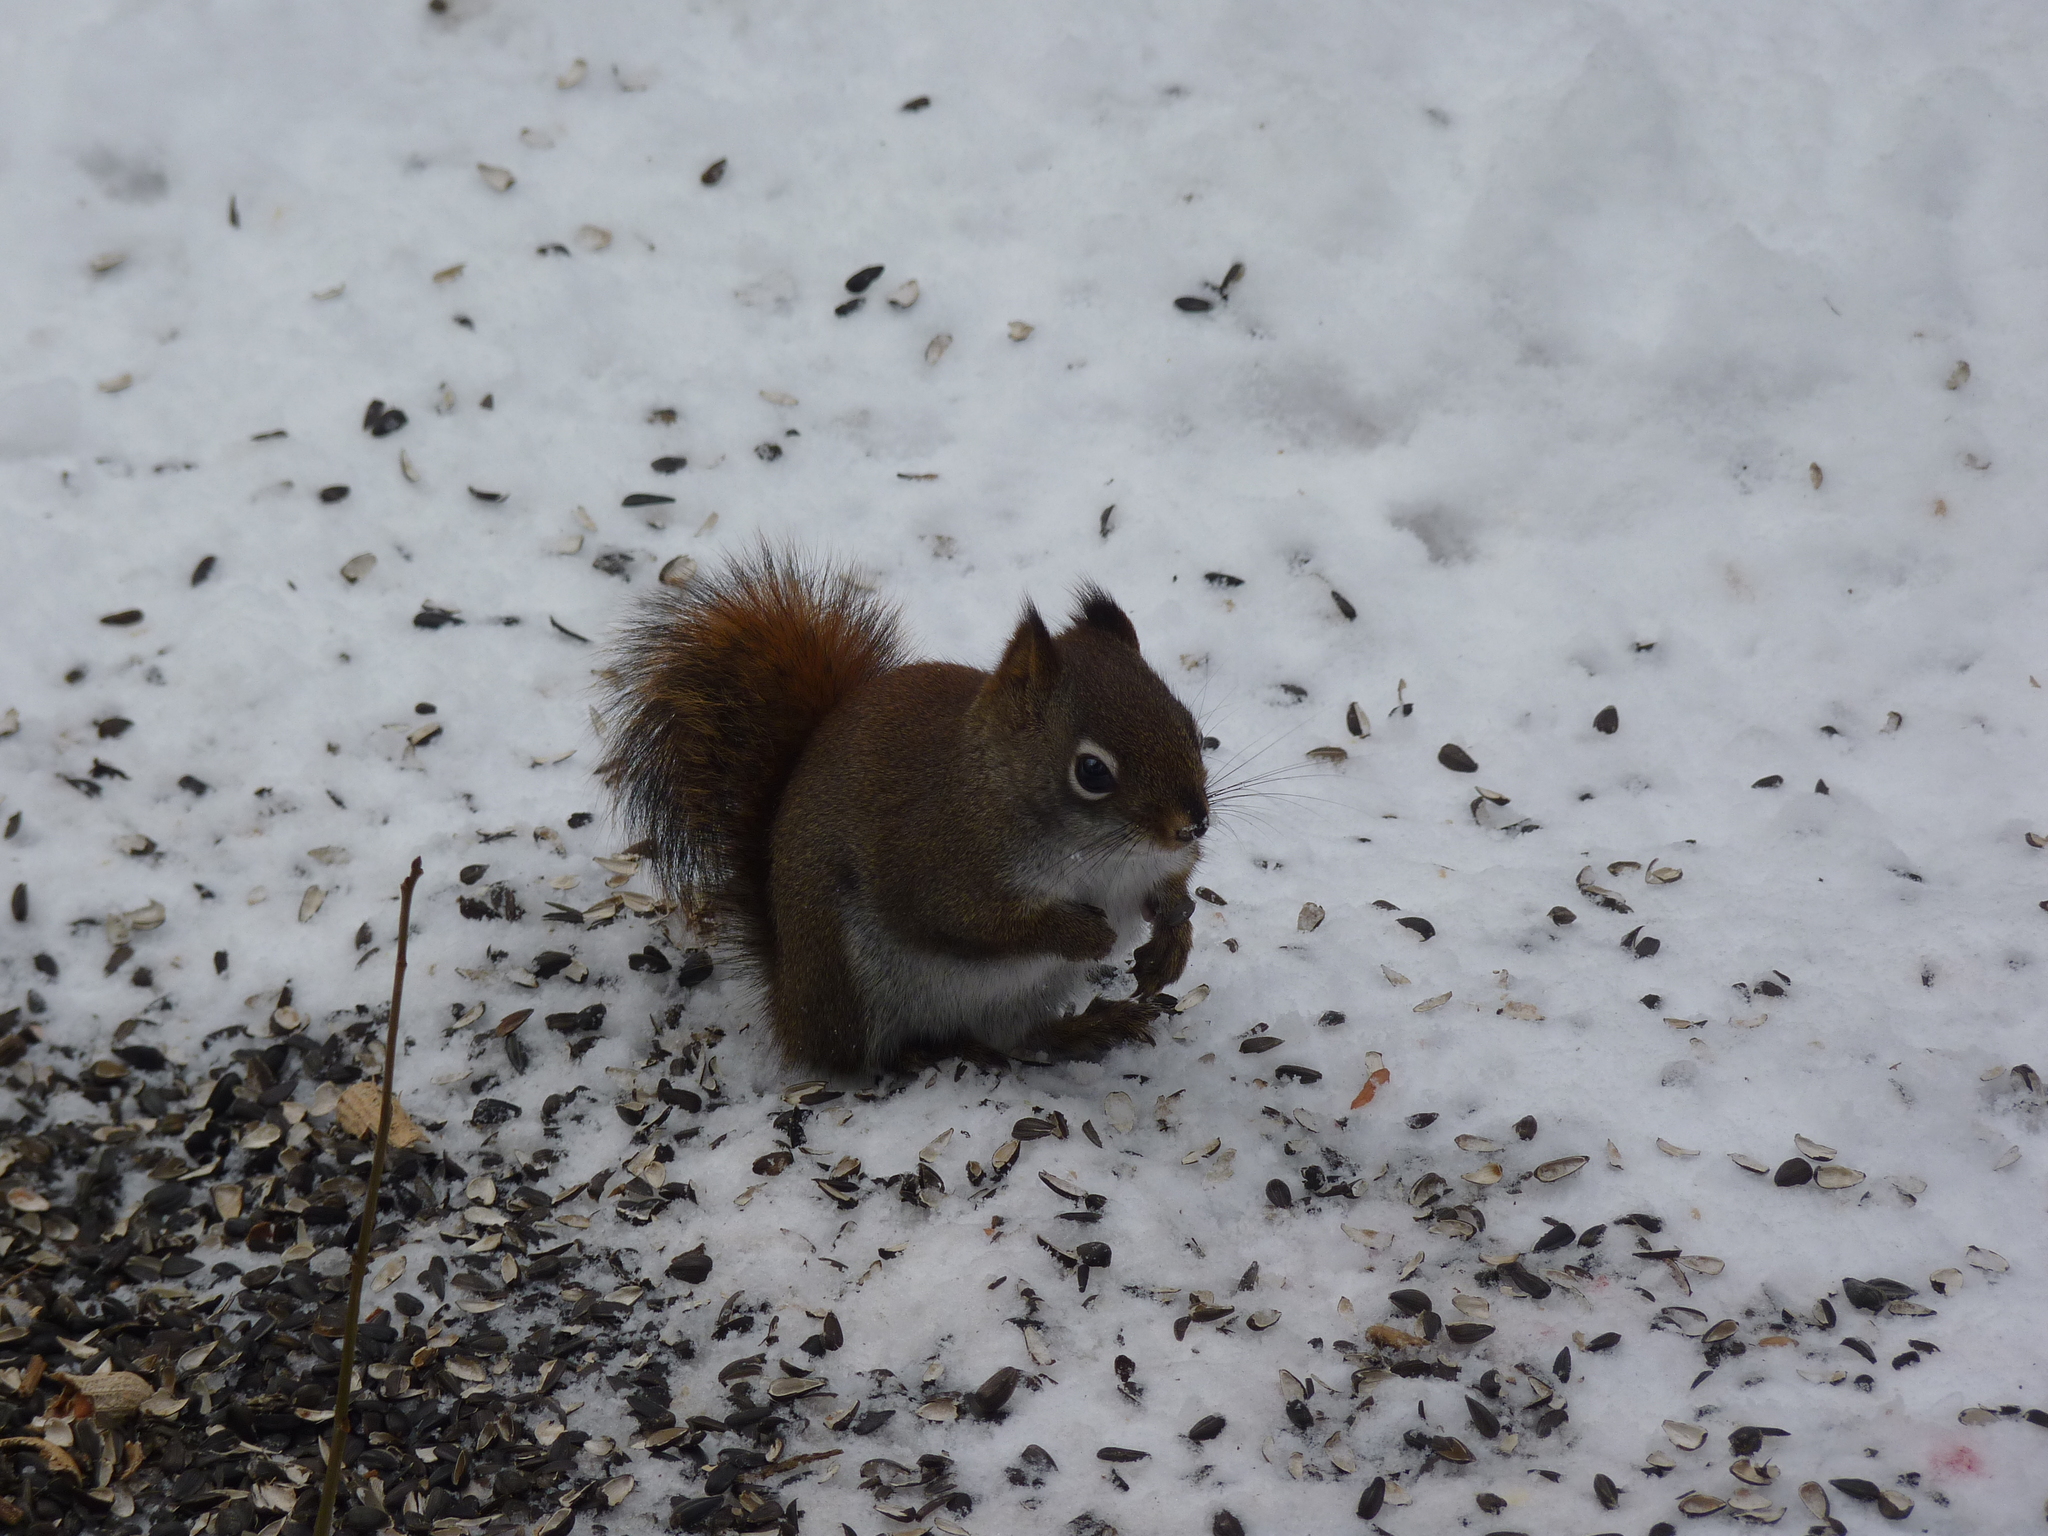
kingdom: Animalia
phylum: Chordata
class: Mammalia
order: Rodentia
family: Sciuridae
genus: Tamiasciurus
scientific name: Tamiasciurus hudsonicus
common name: Red squirrel
